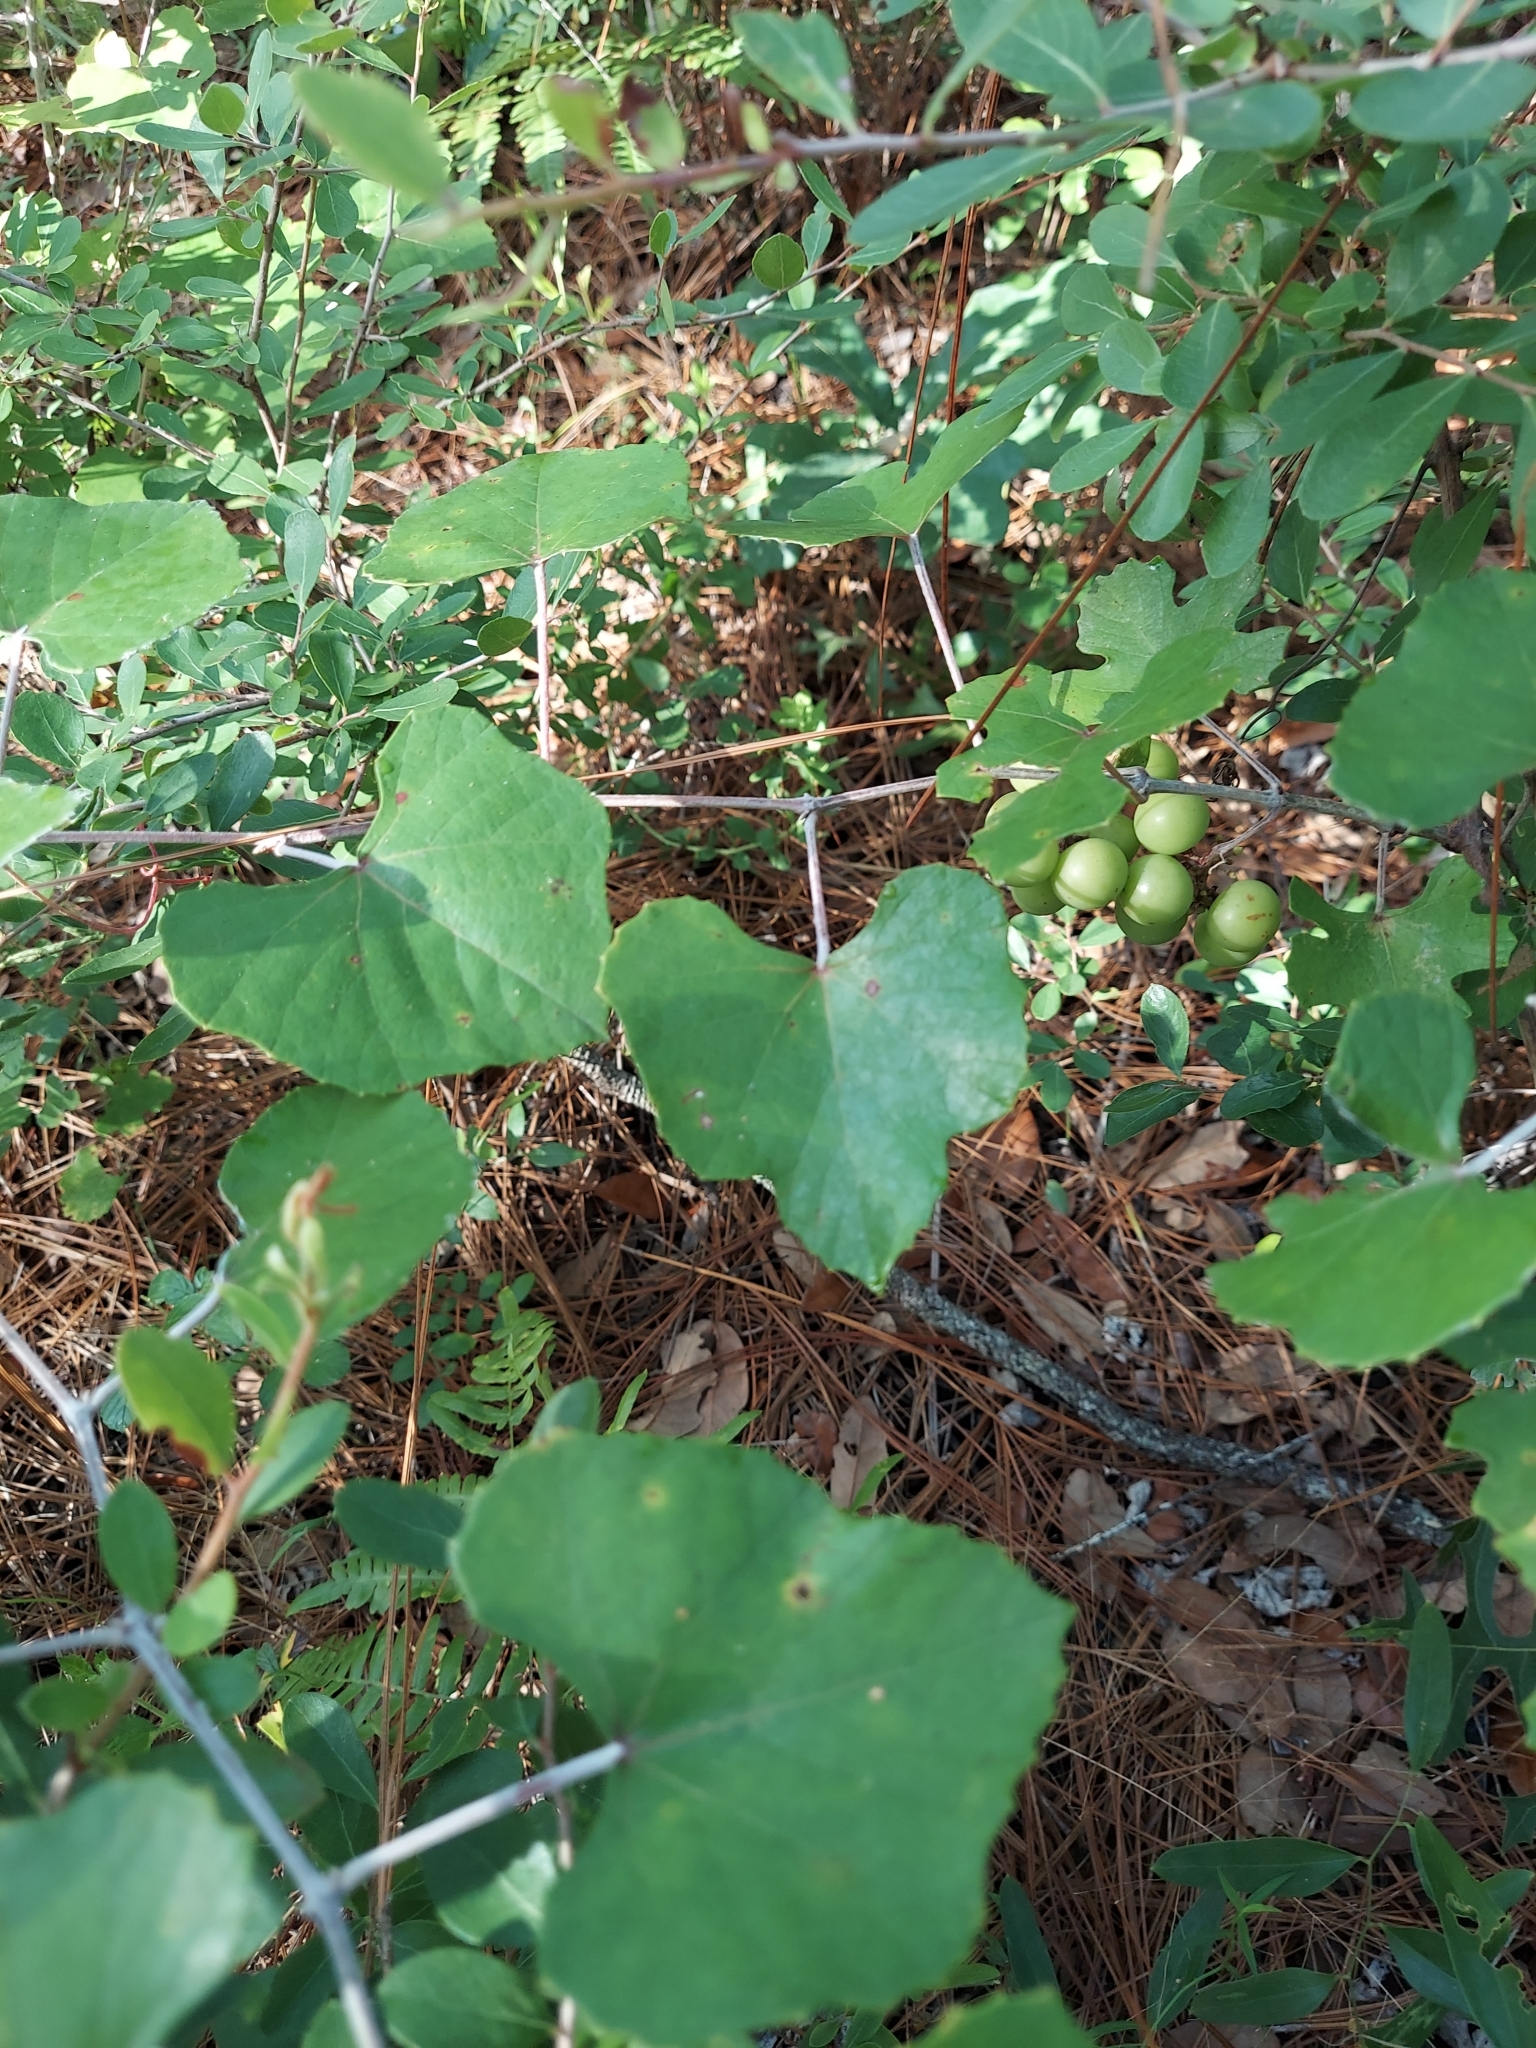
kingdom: Plantae
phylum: Tracheophyta
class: Magnoliopsida
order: Vitales
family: Vitaceae
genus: Vitis
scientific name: Vitis shuttleworthii
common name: Caloosa grape
